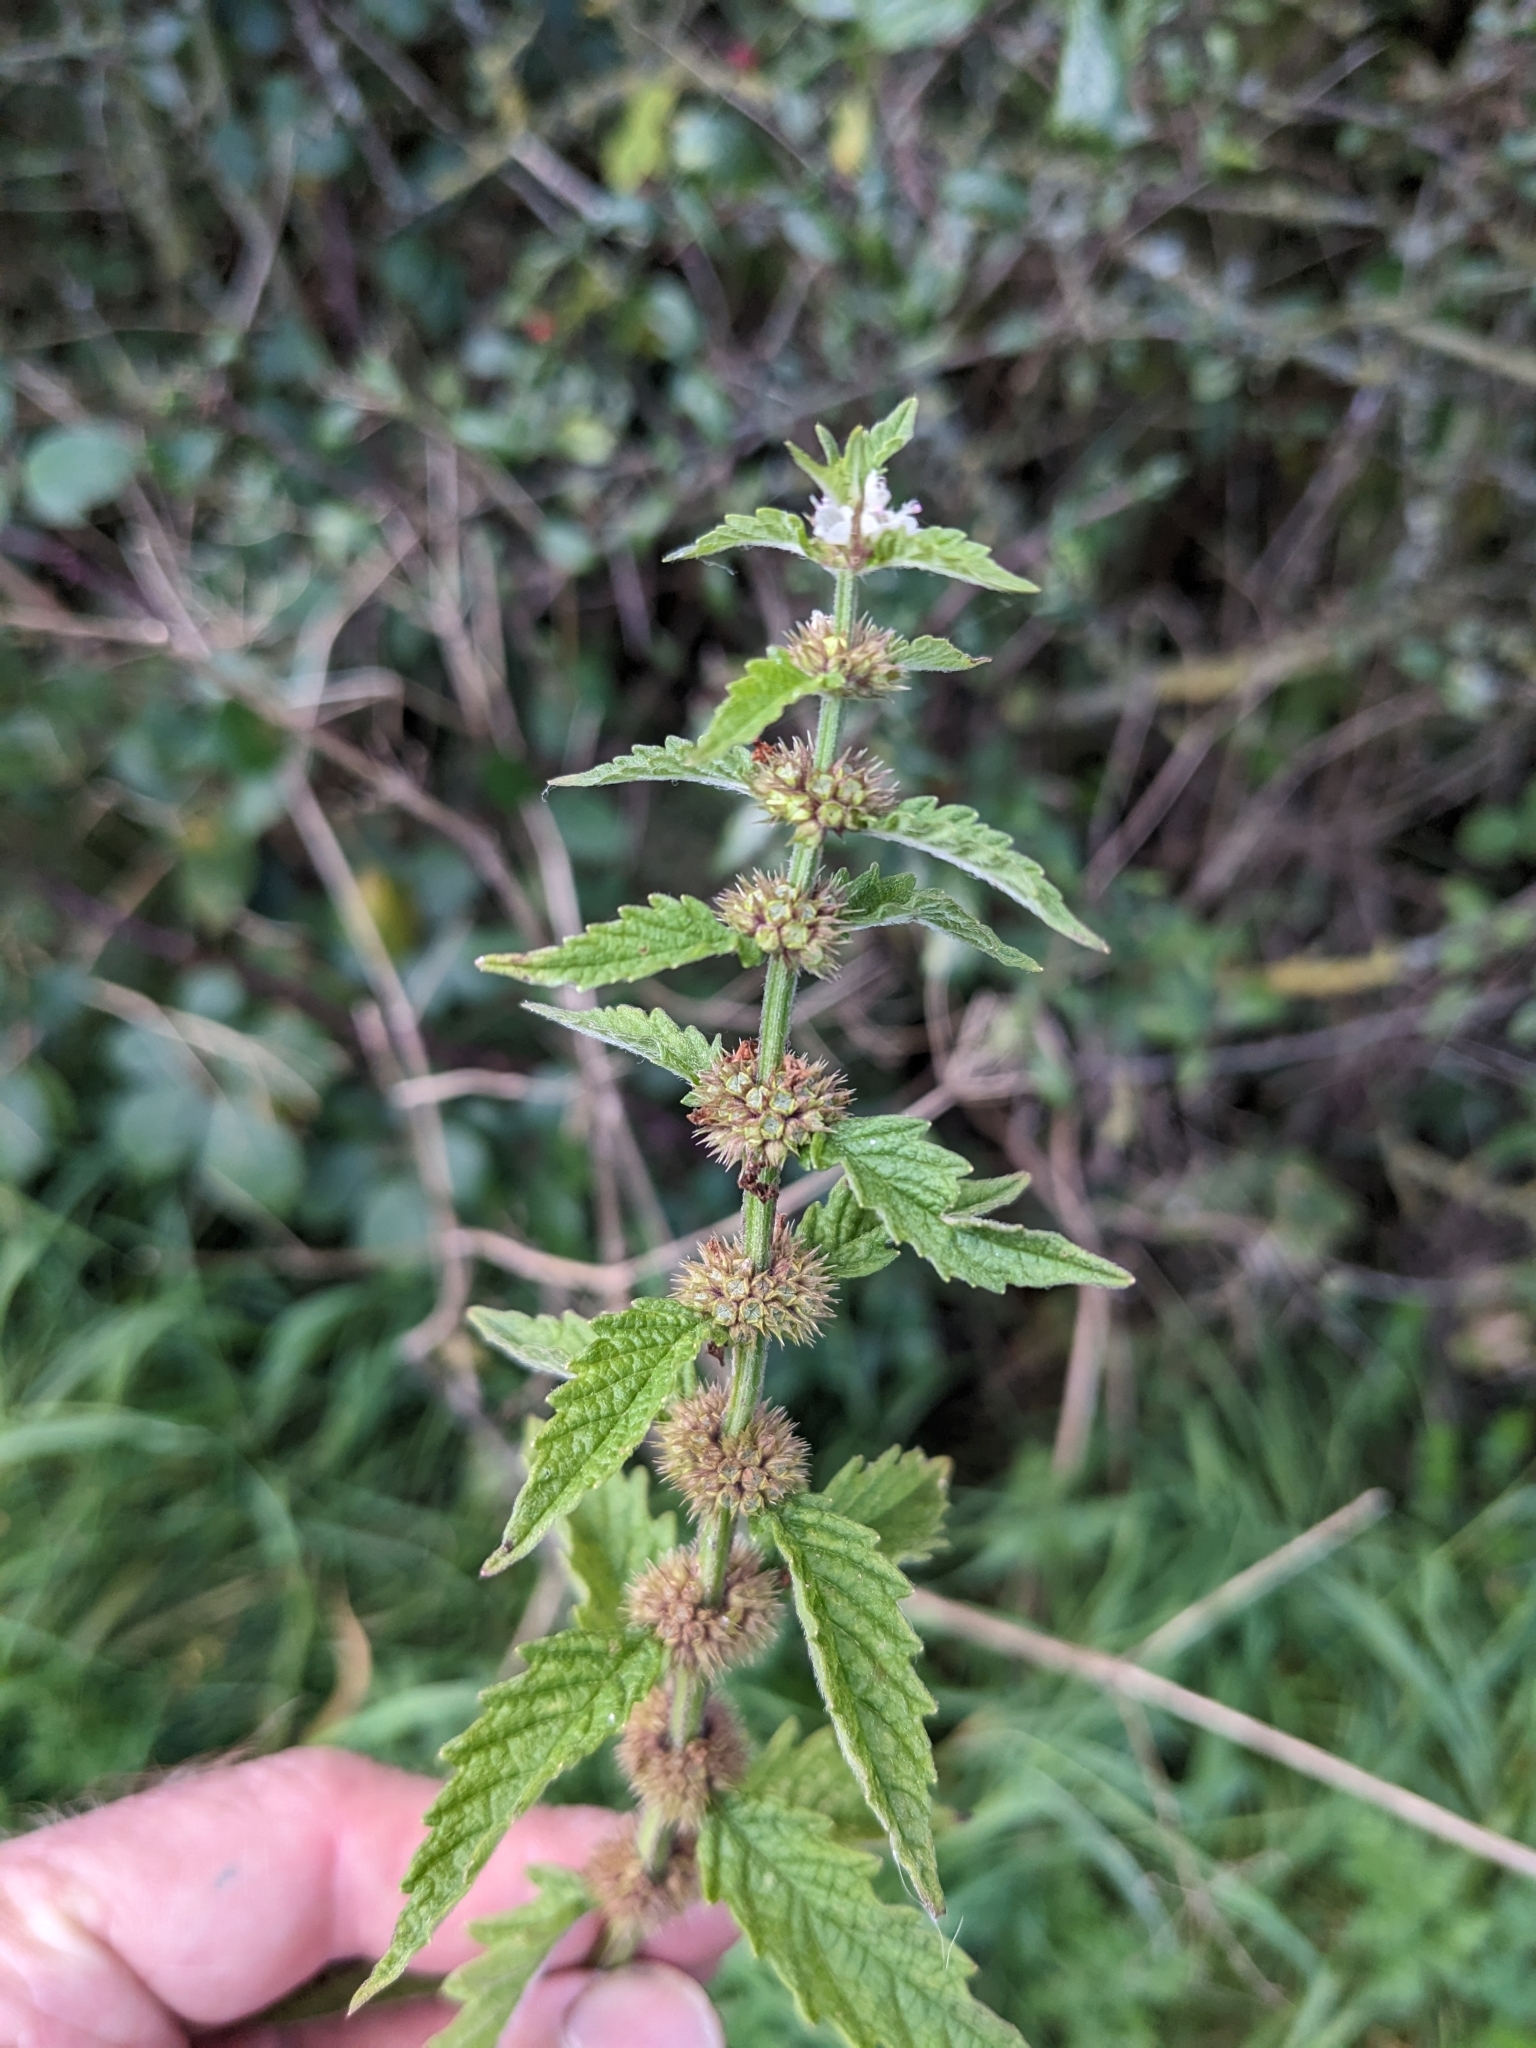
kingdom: Plantae
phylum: Tracheophyta
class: Magnoliopsida
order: Lamiales
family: Lamiaceae
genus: Lycopus
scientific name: Lycopus europaeus
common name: European bugleweed
